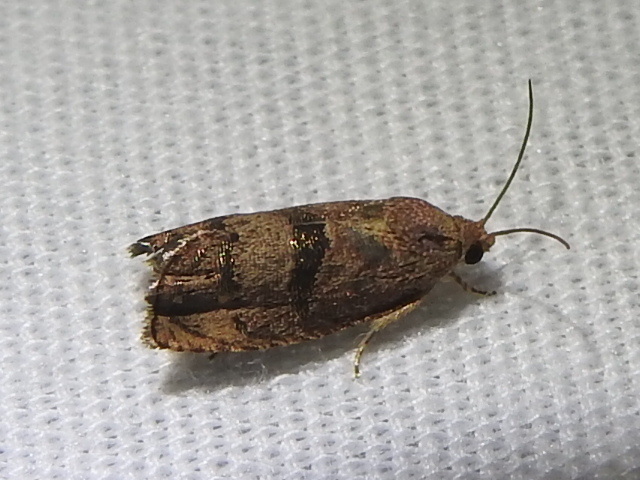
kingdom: Animalia
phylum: Arthropoda
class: Insecta
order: Lepidoptera
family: Tortricidae
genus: Cydia
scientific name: Cydia latiferreana
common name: Filbertworm moth
